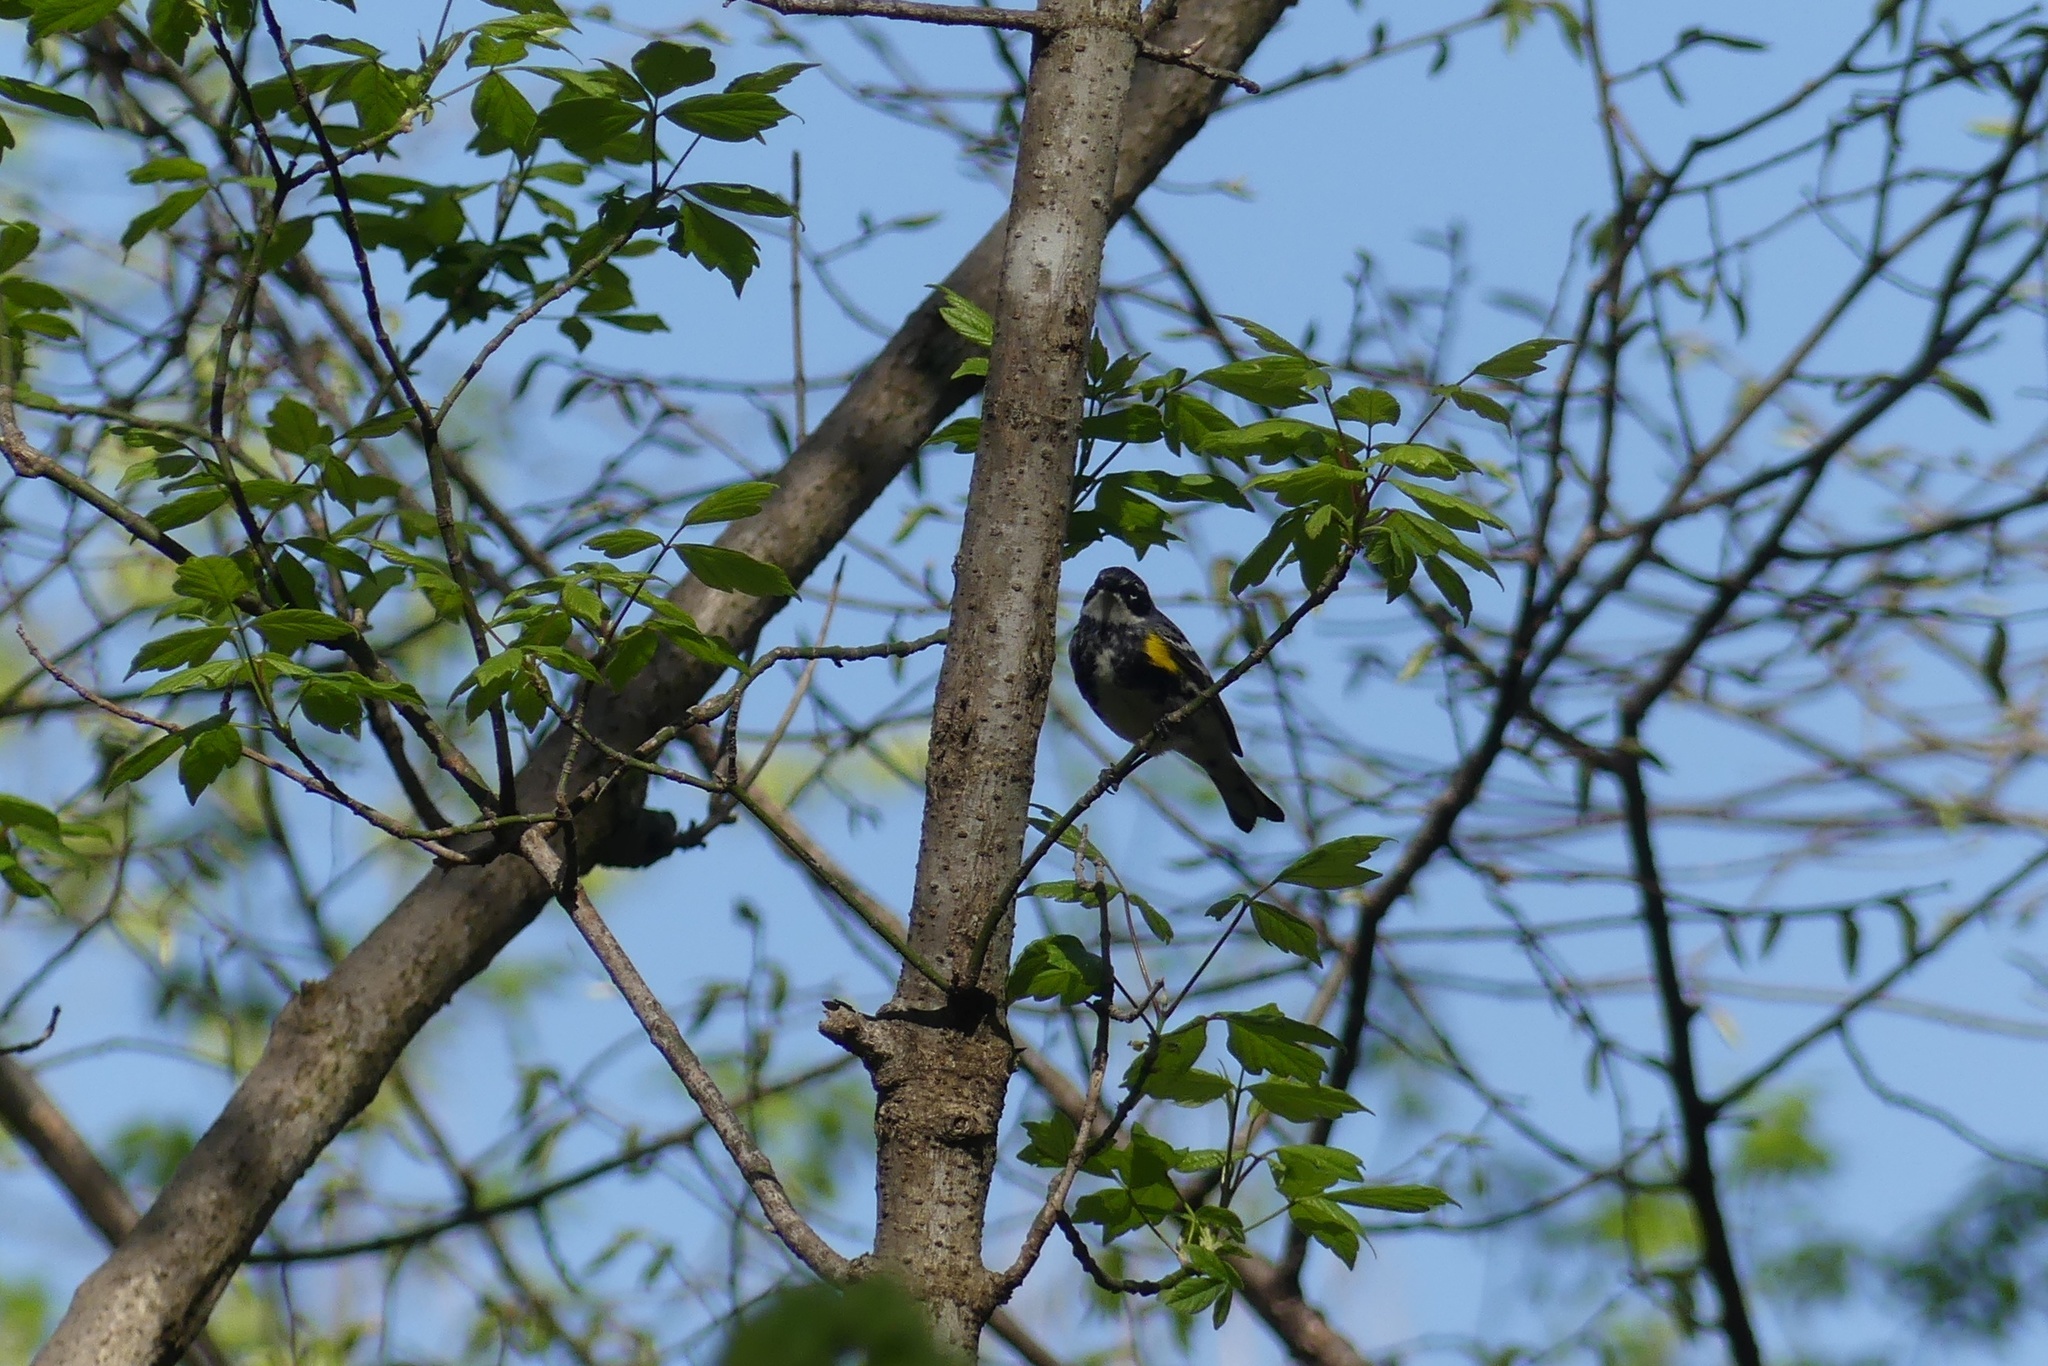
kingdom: Animalia
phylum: Chordata
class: Aves
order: Passeriformes
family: Parulidae
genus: Setophaga
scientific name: Setophaga coronata
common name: Myrtle warbler
